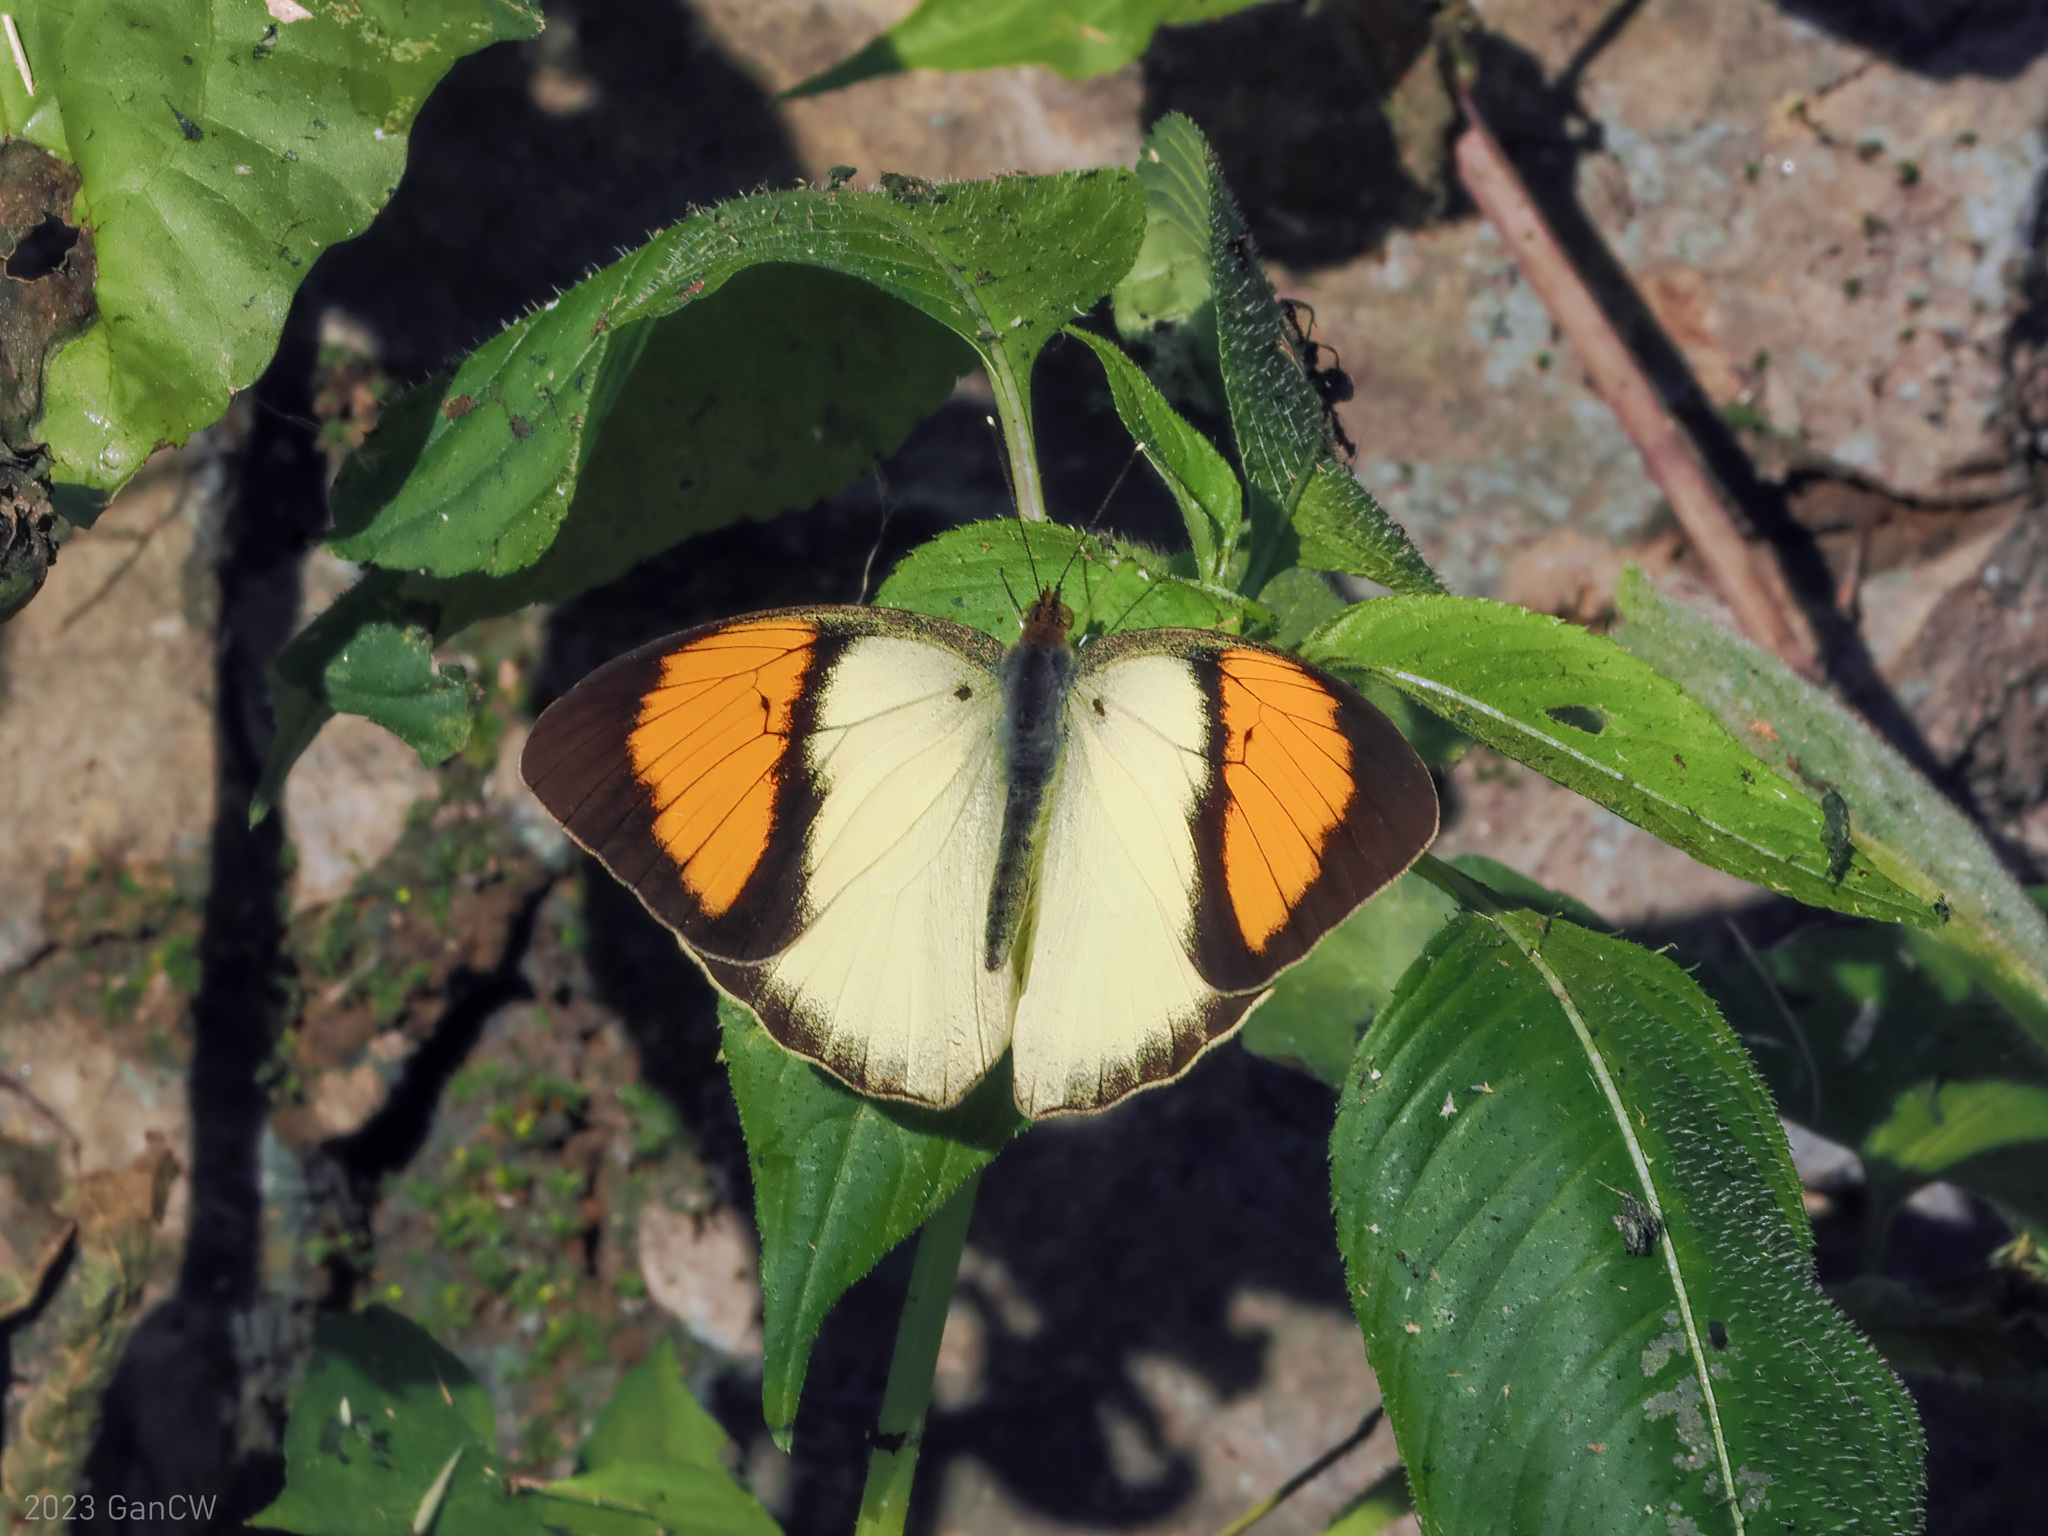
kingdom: Animalia
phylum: Arthropoda
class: Insecta
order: Lepidoptera
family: Pieridae
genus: Ixias
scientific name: Ixias pyrene
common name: Yellow orange tip
